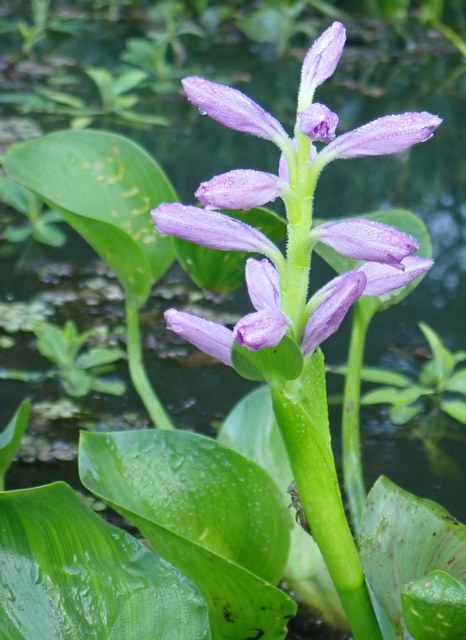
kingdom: Plantae
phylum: Tracheophyta
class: Liliopsida
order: Commelinales
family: Pontederiaceae
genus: Pontederia
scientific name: Pontederia crassipes
